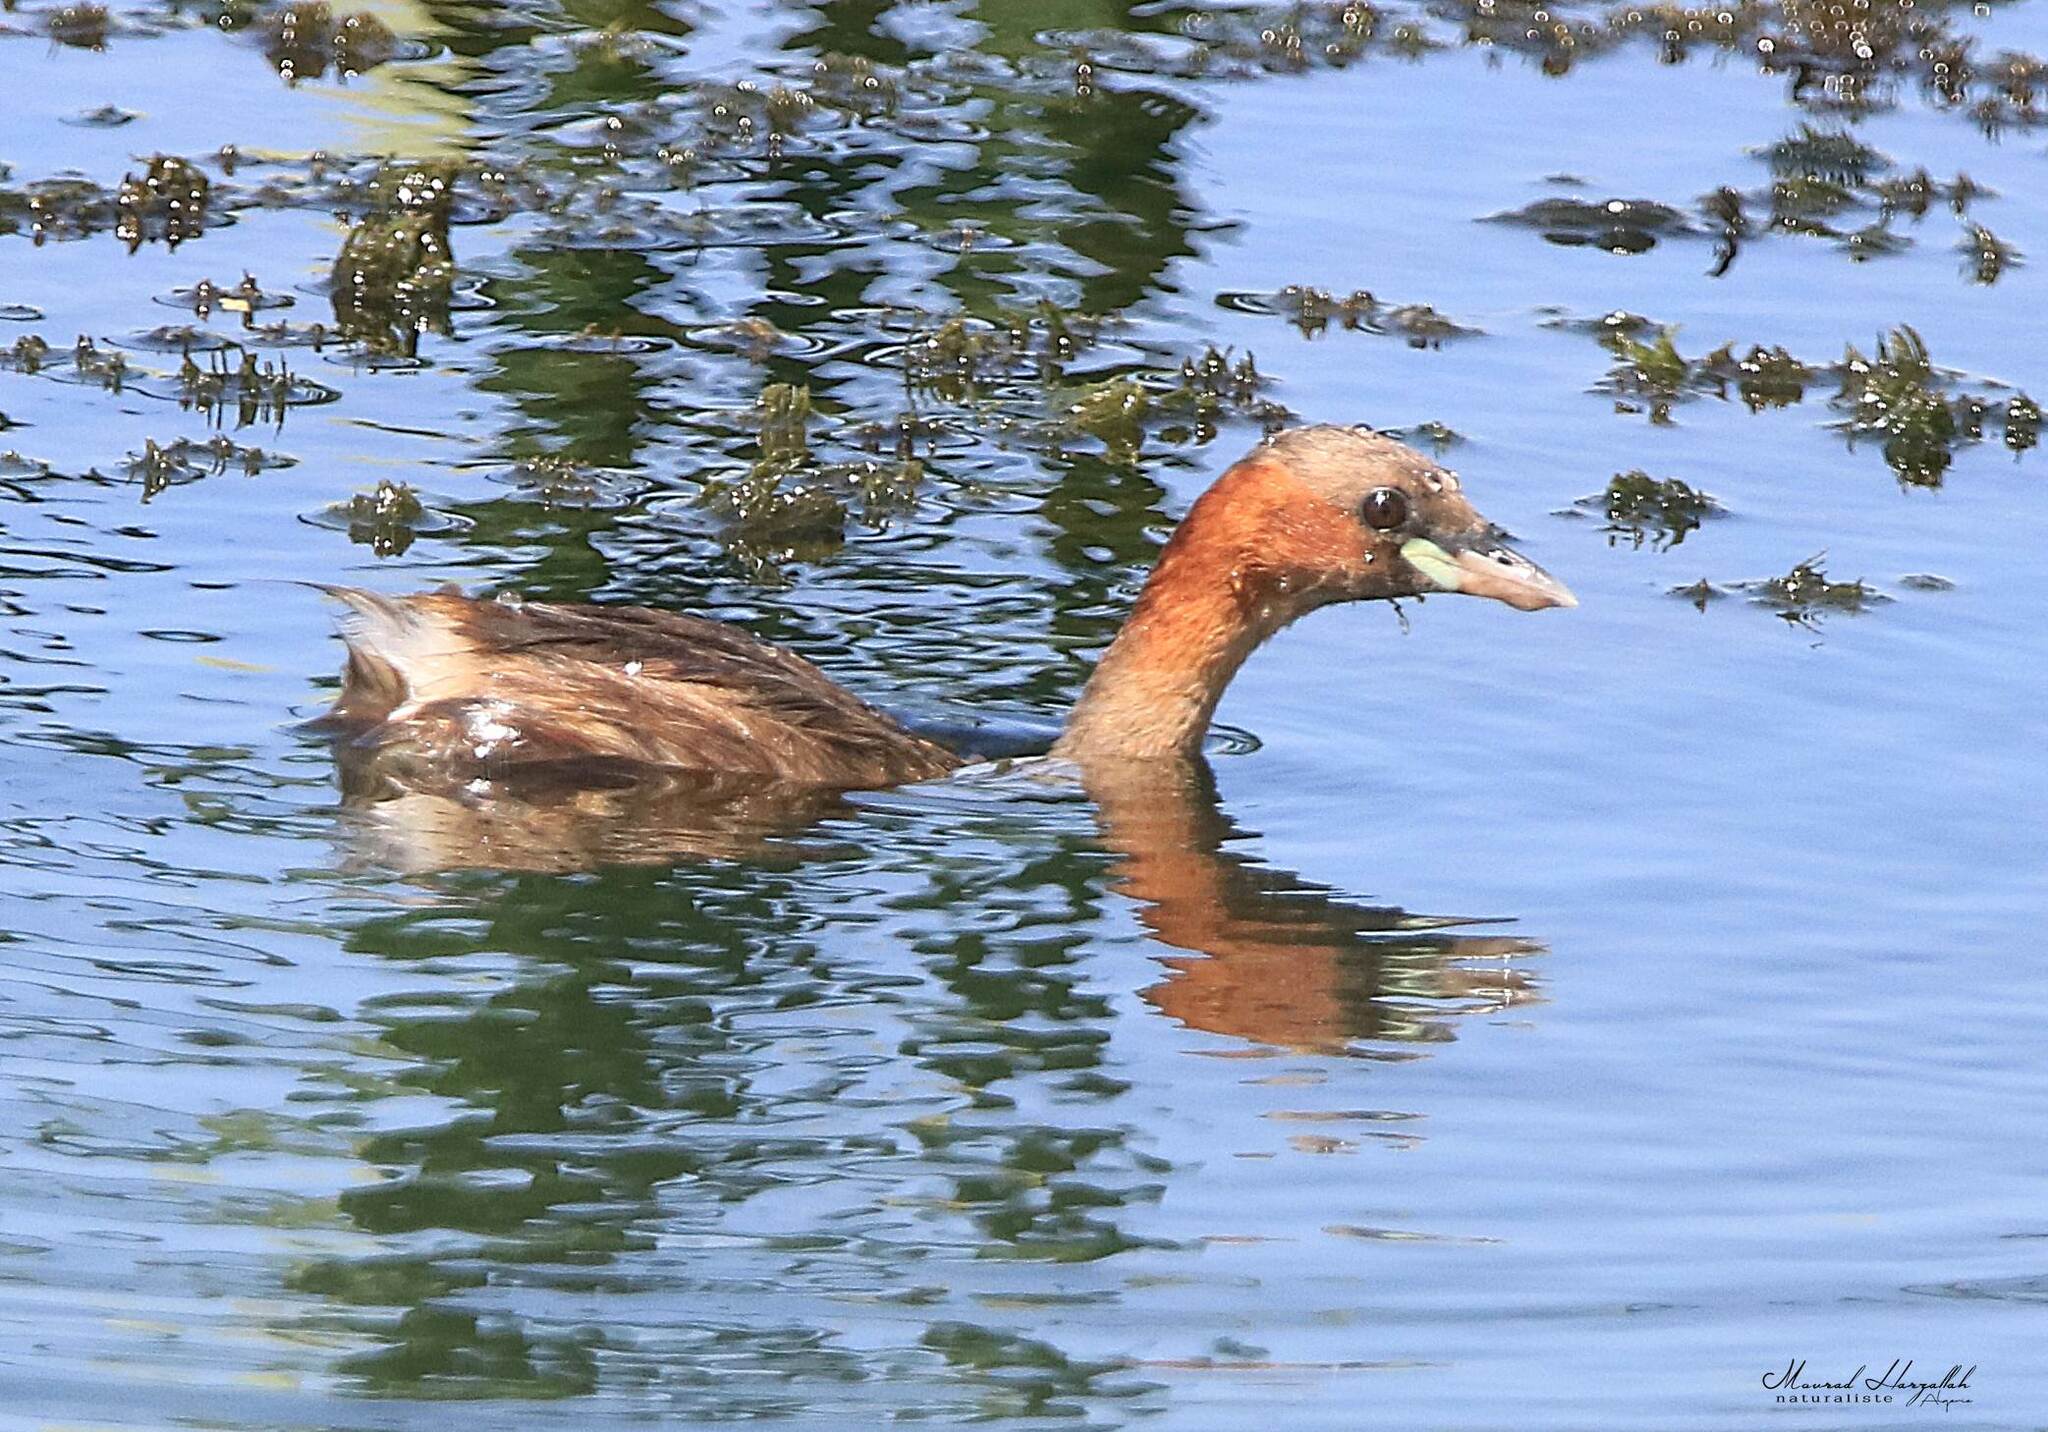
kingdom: Animalia
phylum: Chordata
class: Aves
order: Podicipediformes
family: Podicipedidae
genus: Tachybaptus
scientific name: Tachybaptus ruficollis
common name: Little grebe
